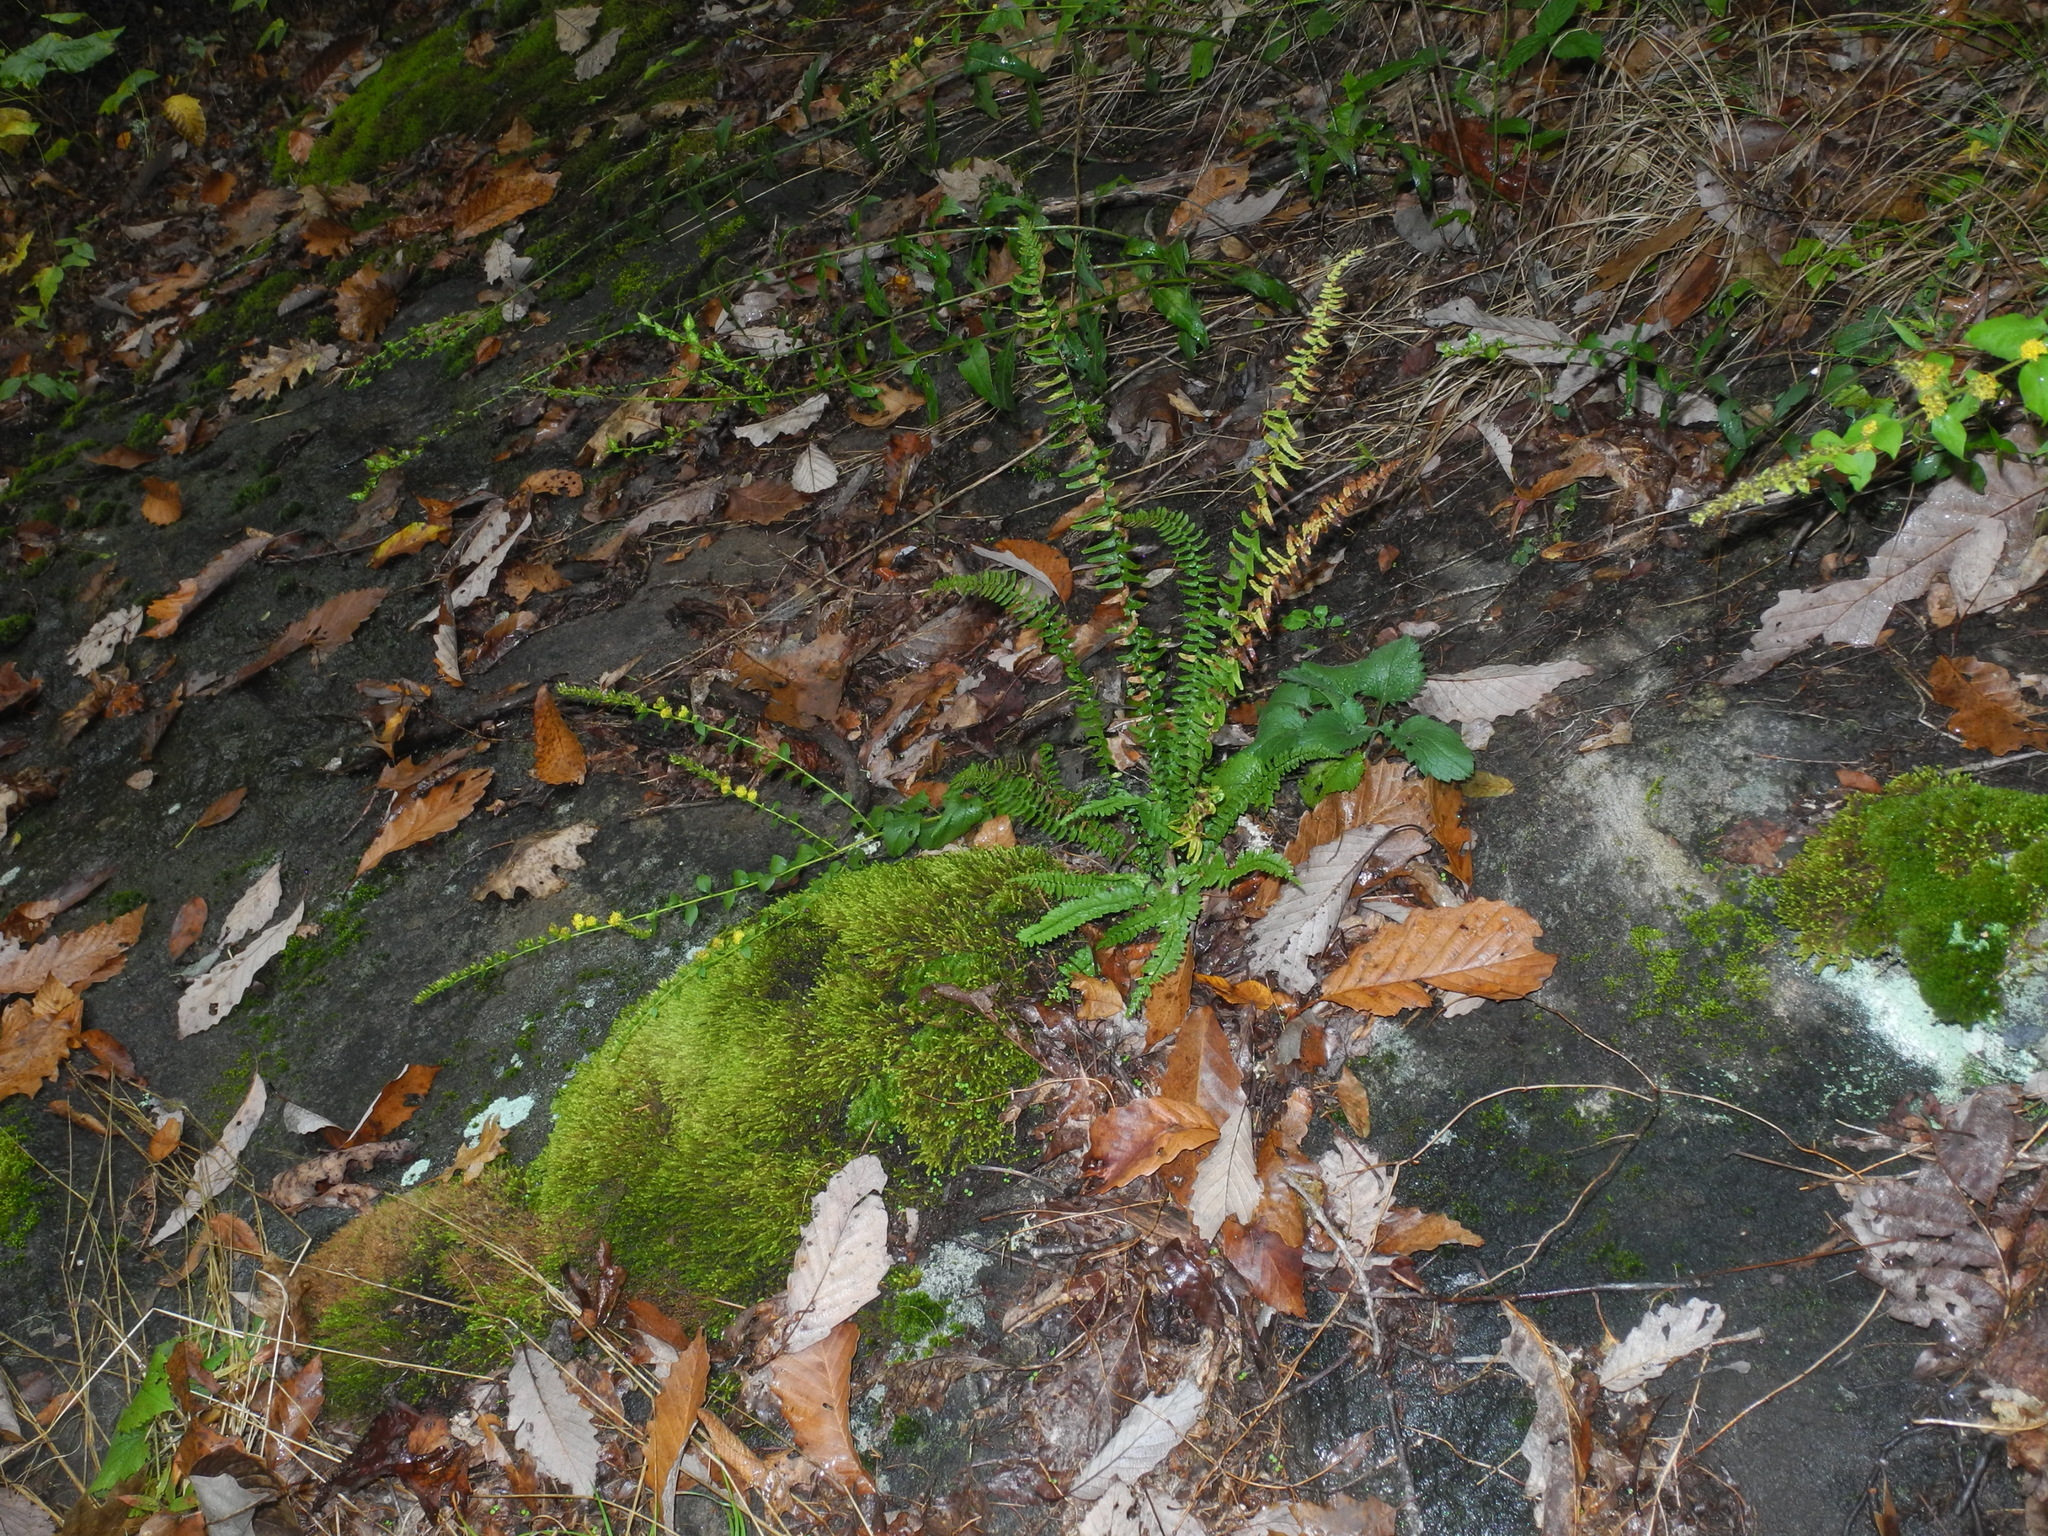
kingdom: Plantae
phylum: Bryophyta
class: Bryopsida
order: Hedwigiales
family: Hedwigiaceae
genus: Hedwigia
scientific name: Hedwigia ciliata
